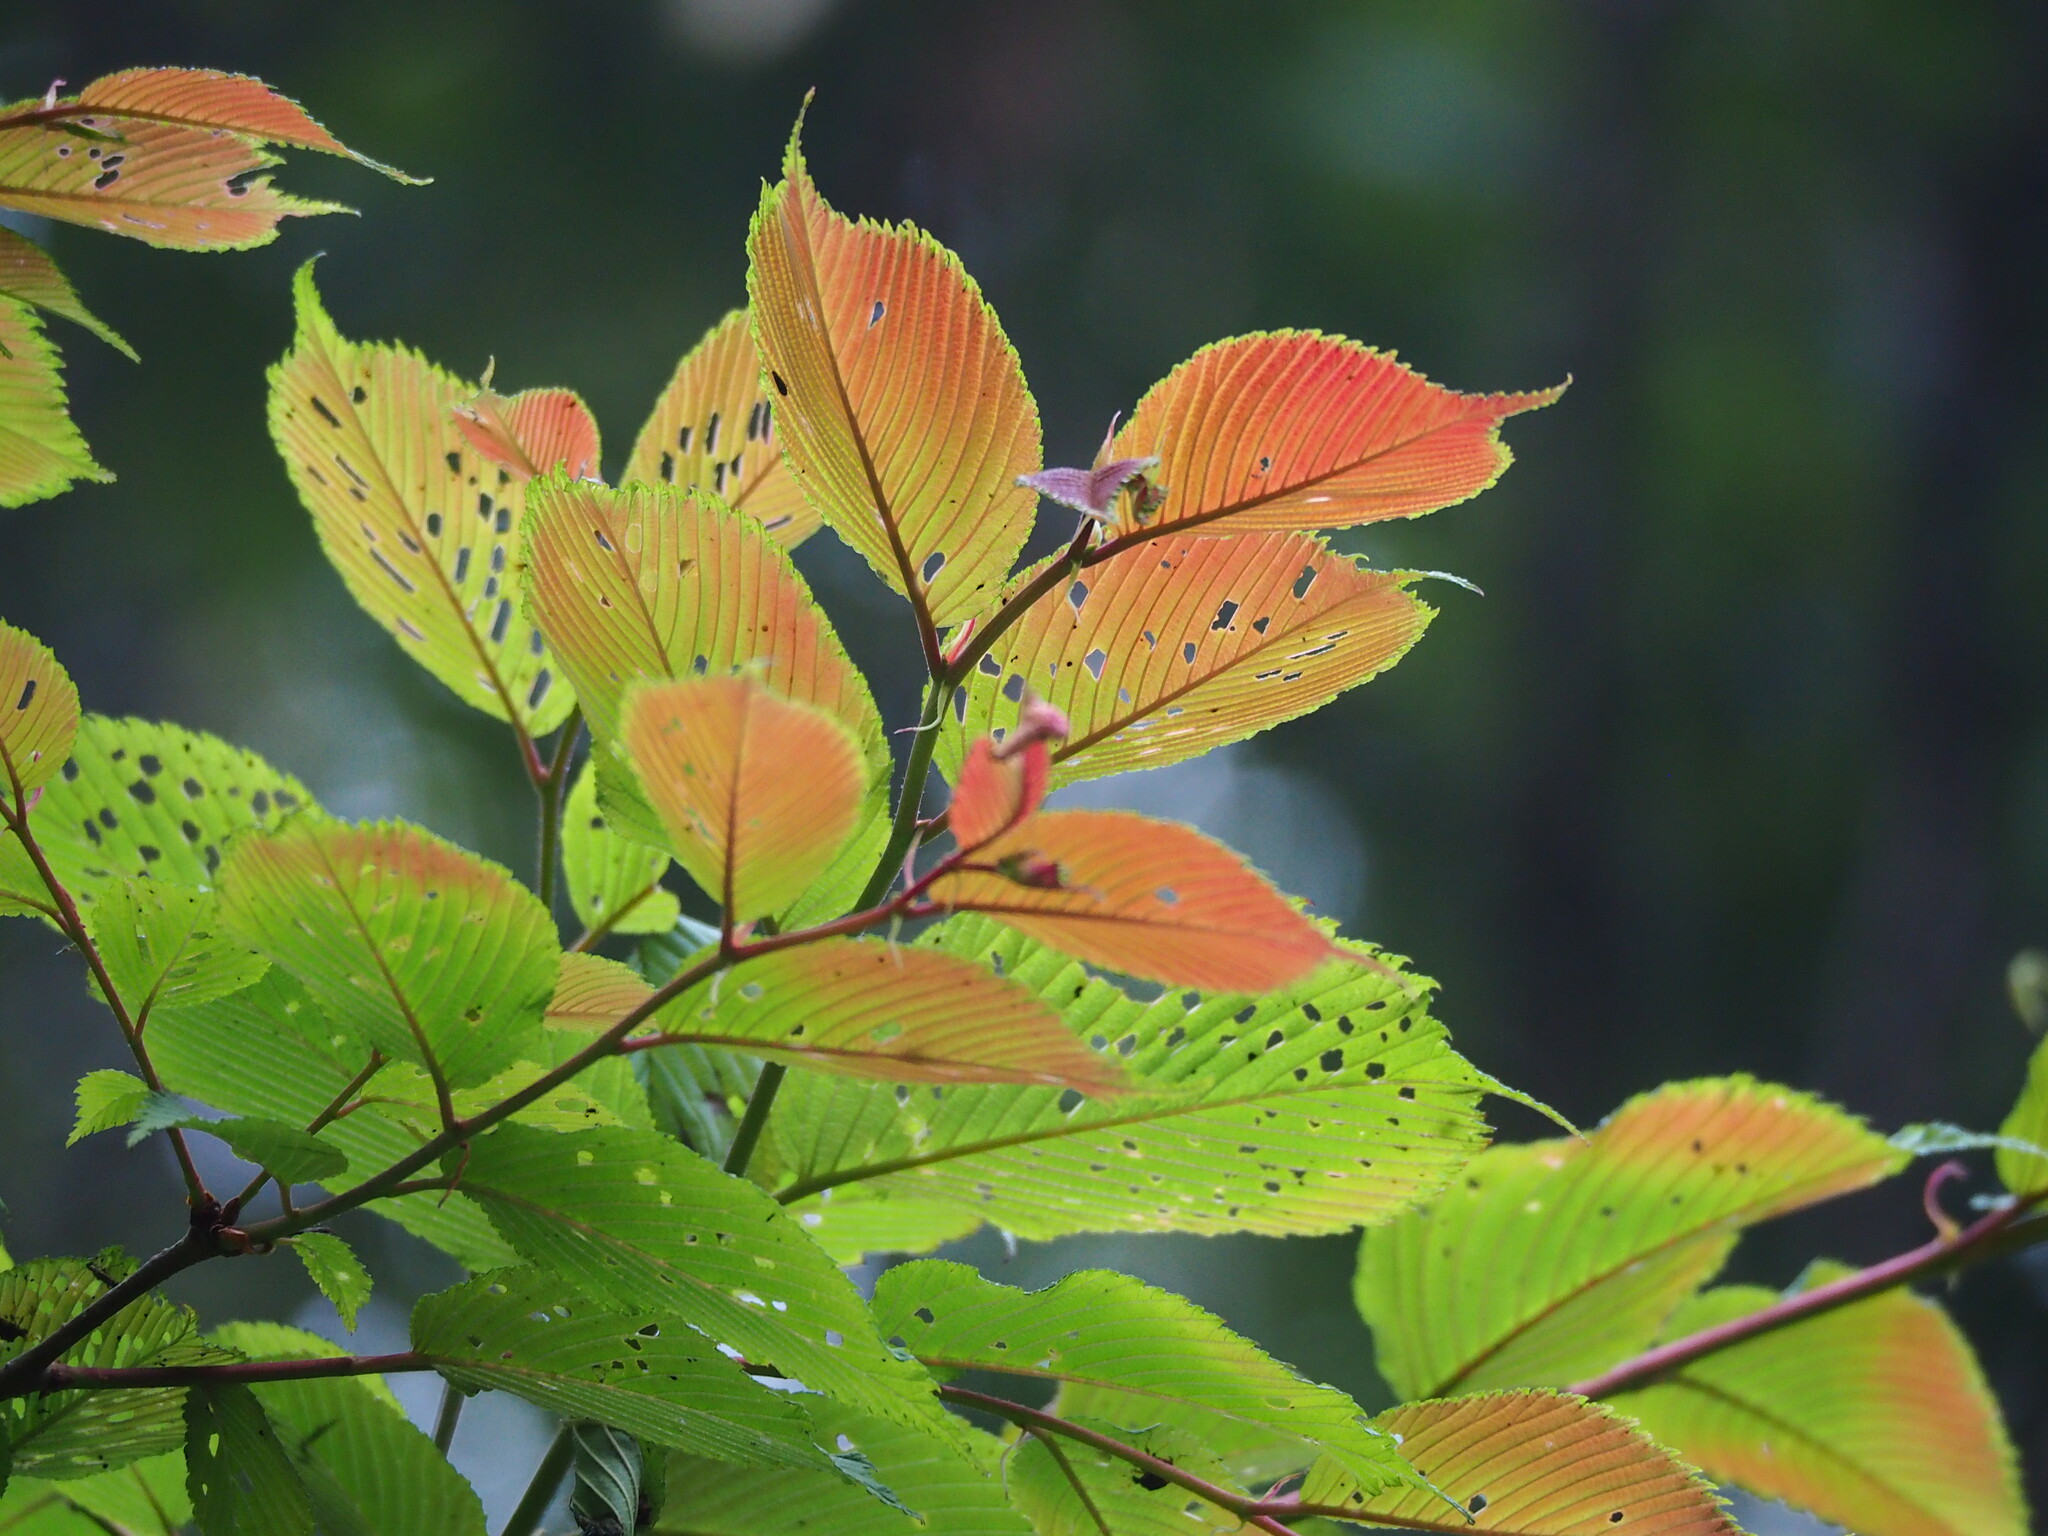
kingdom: Plantae
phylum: Tracheophyta
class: Magnoliopsida
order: Rosales
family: Ulmaceae
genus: Ulmus
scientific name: Ulmus uyematsui
